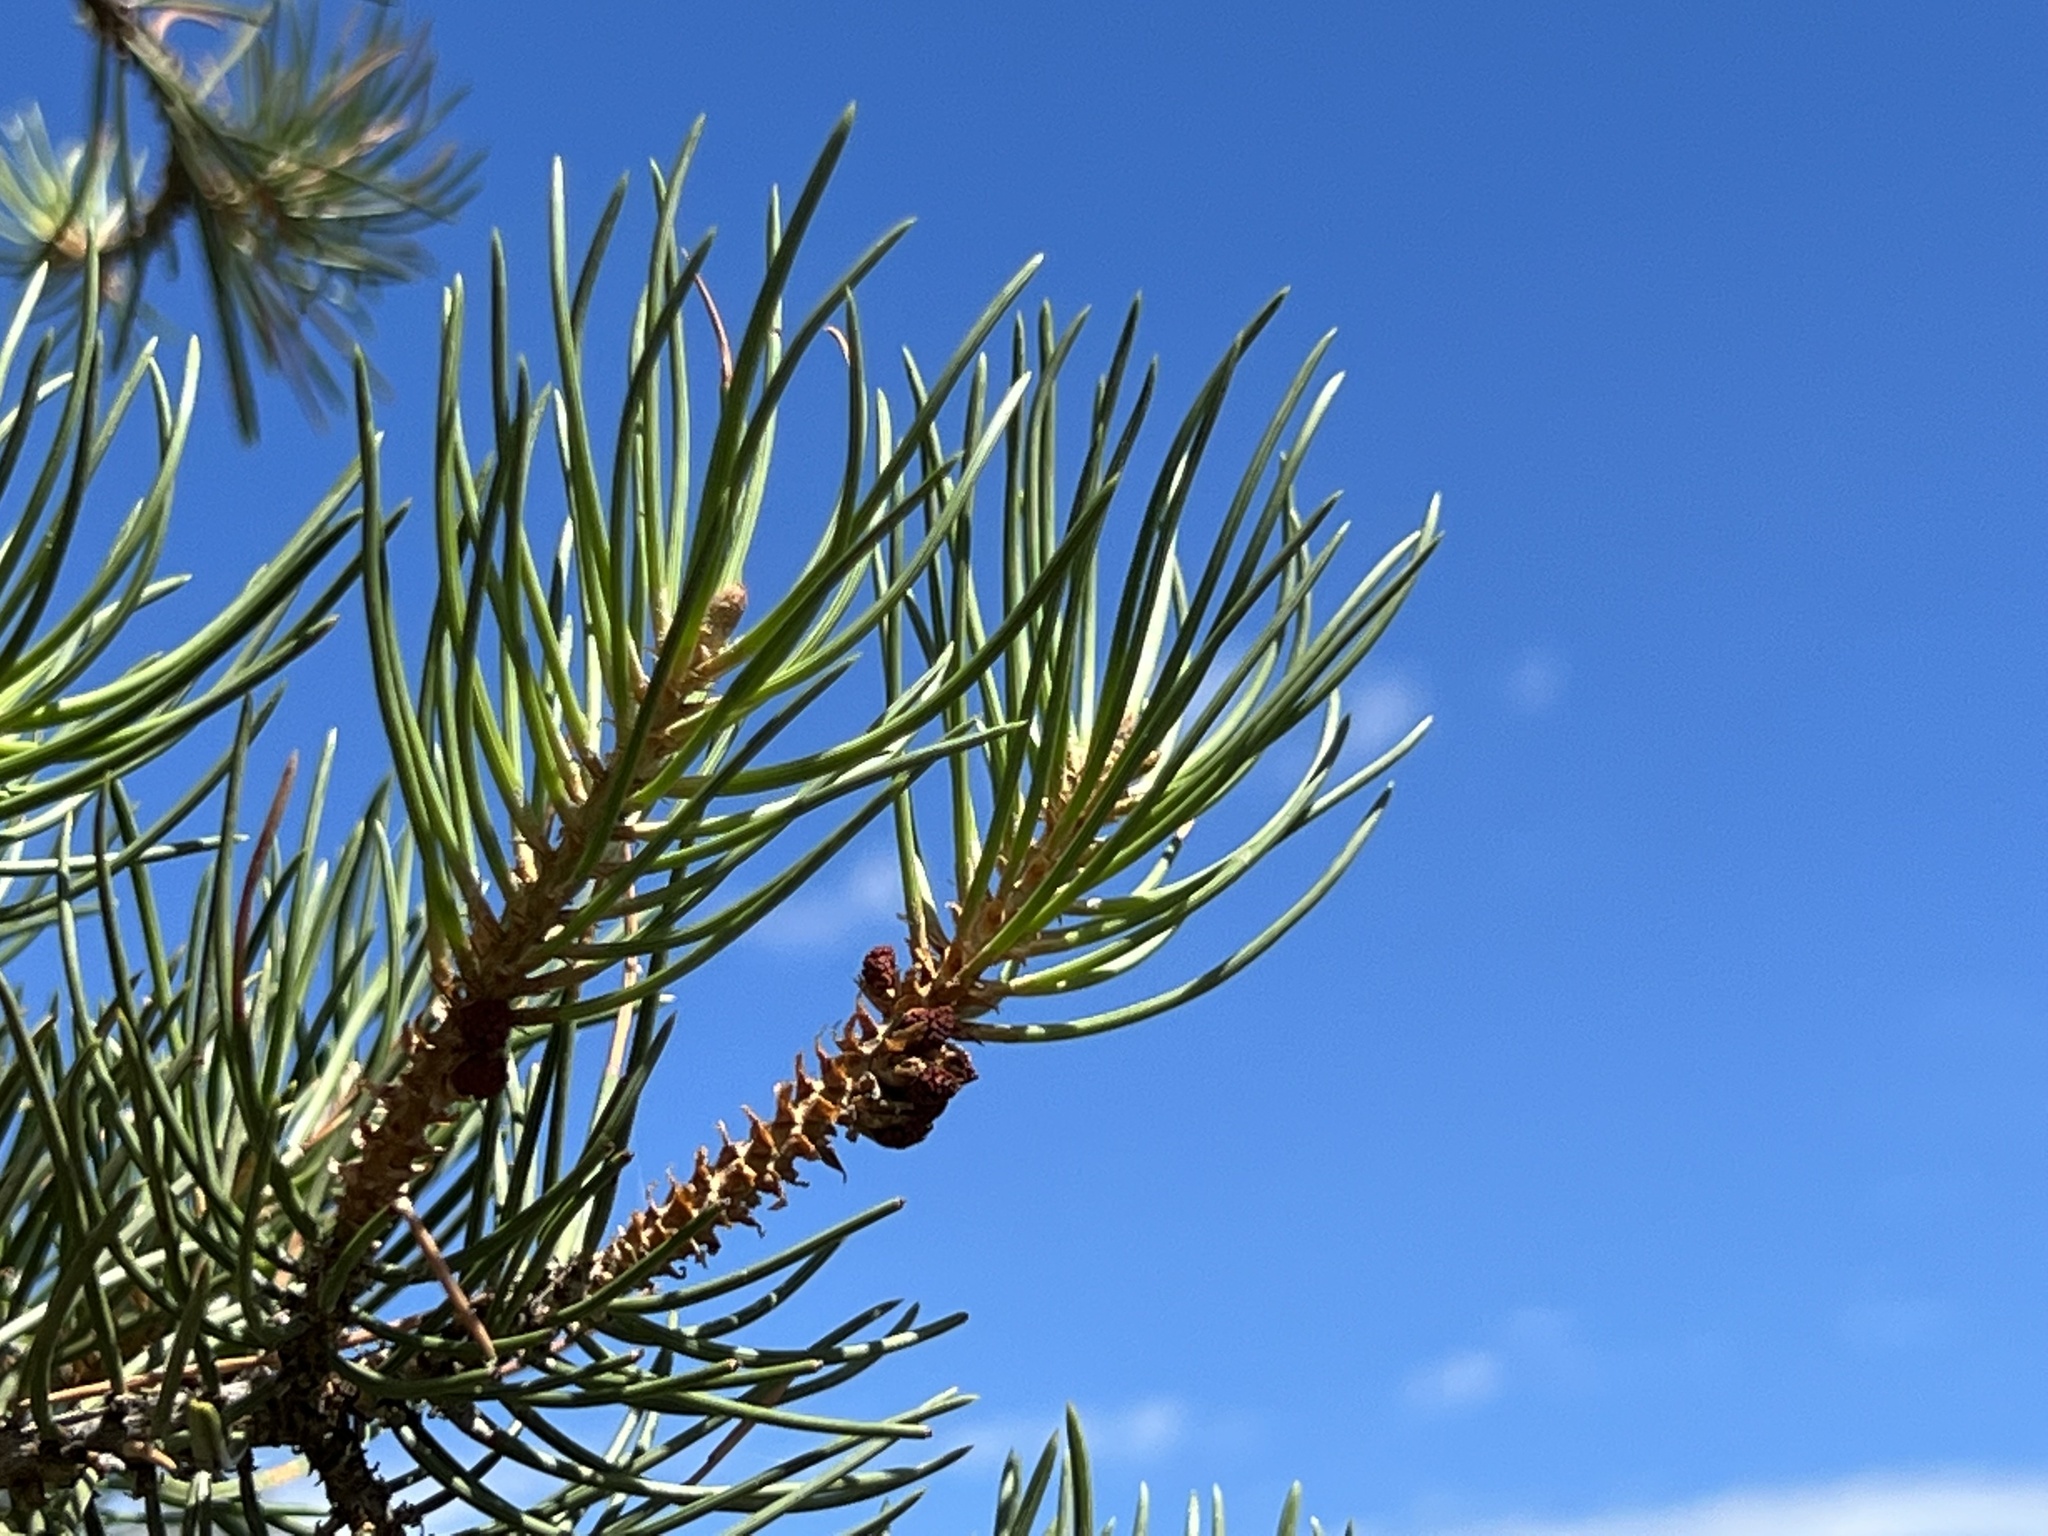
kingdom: Plantae
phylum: Tracheophyta
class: Pinopsida
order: Pinales
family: Pinaceae
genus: Pinus
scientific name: Pinus monophylla
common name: One-leaved nut pine
